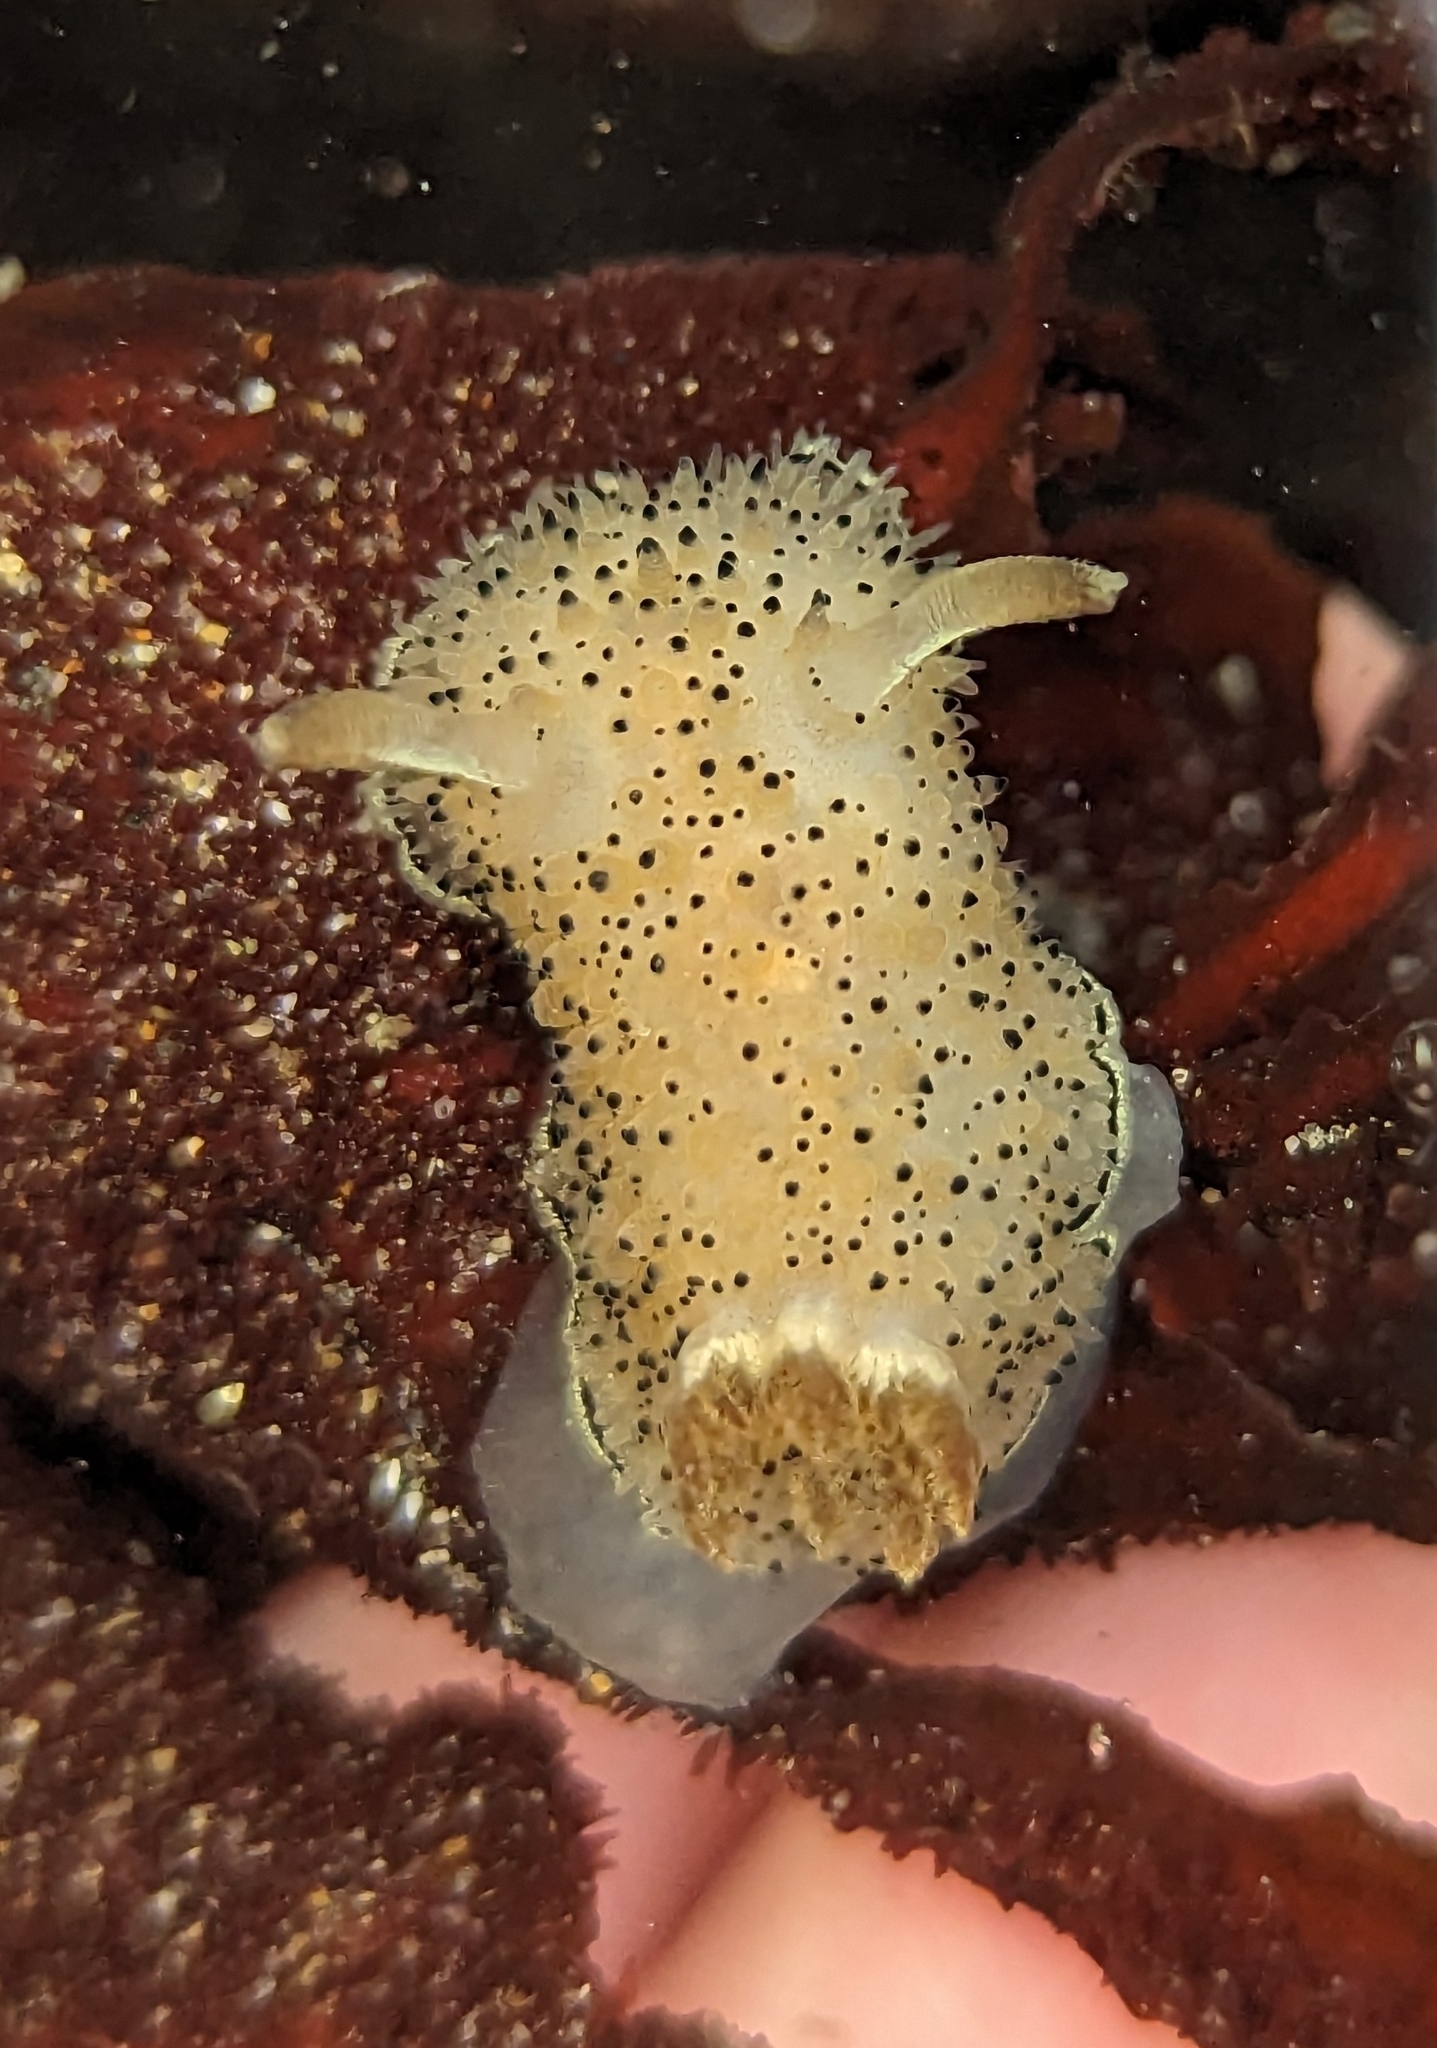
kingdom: Animalia
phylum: Mollusca
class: Gastropoda
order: Nudibranchia
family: Onchidorididae
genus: Acanthodoris
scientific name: Acanthodoris rhodoceras
